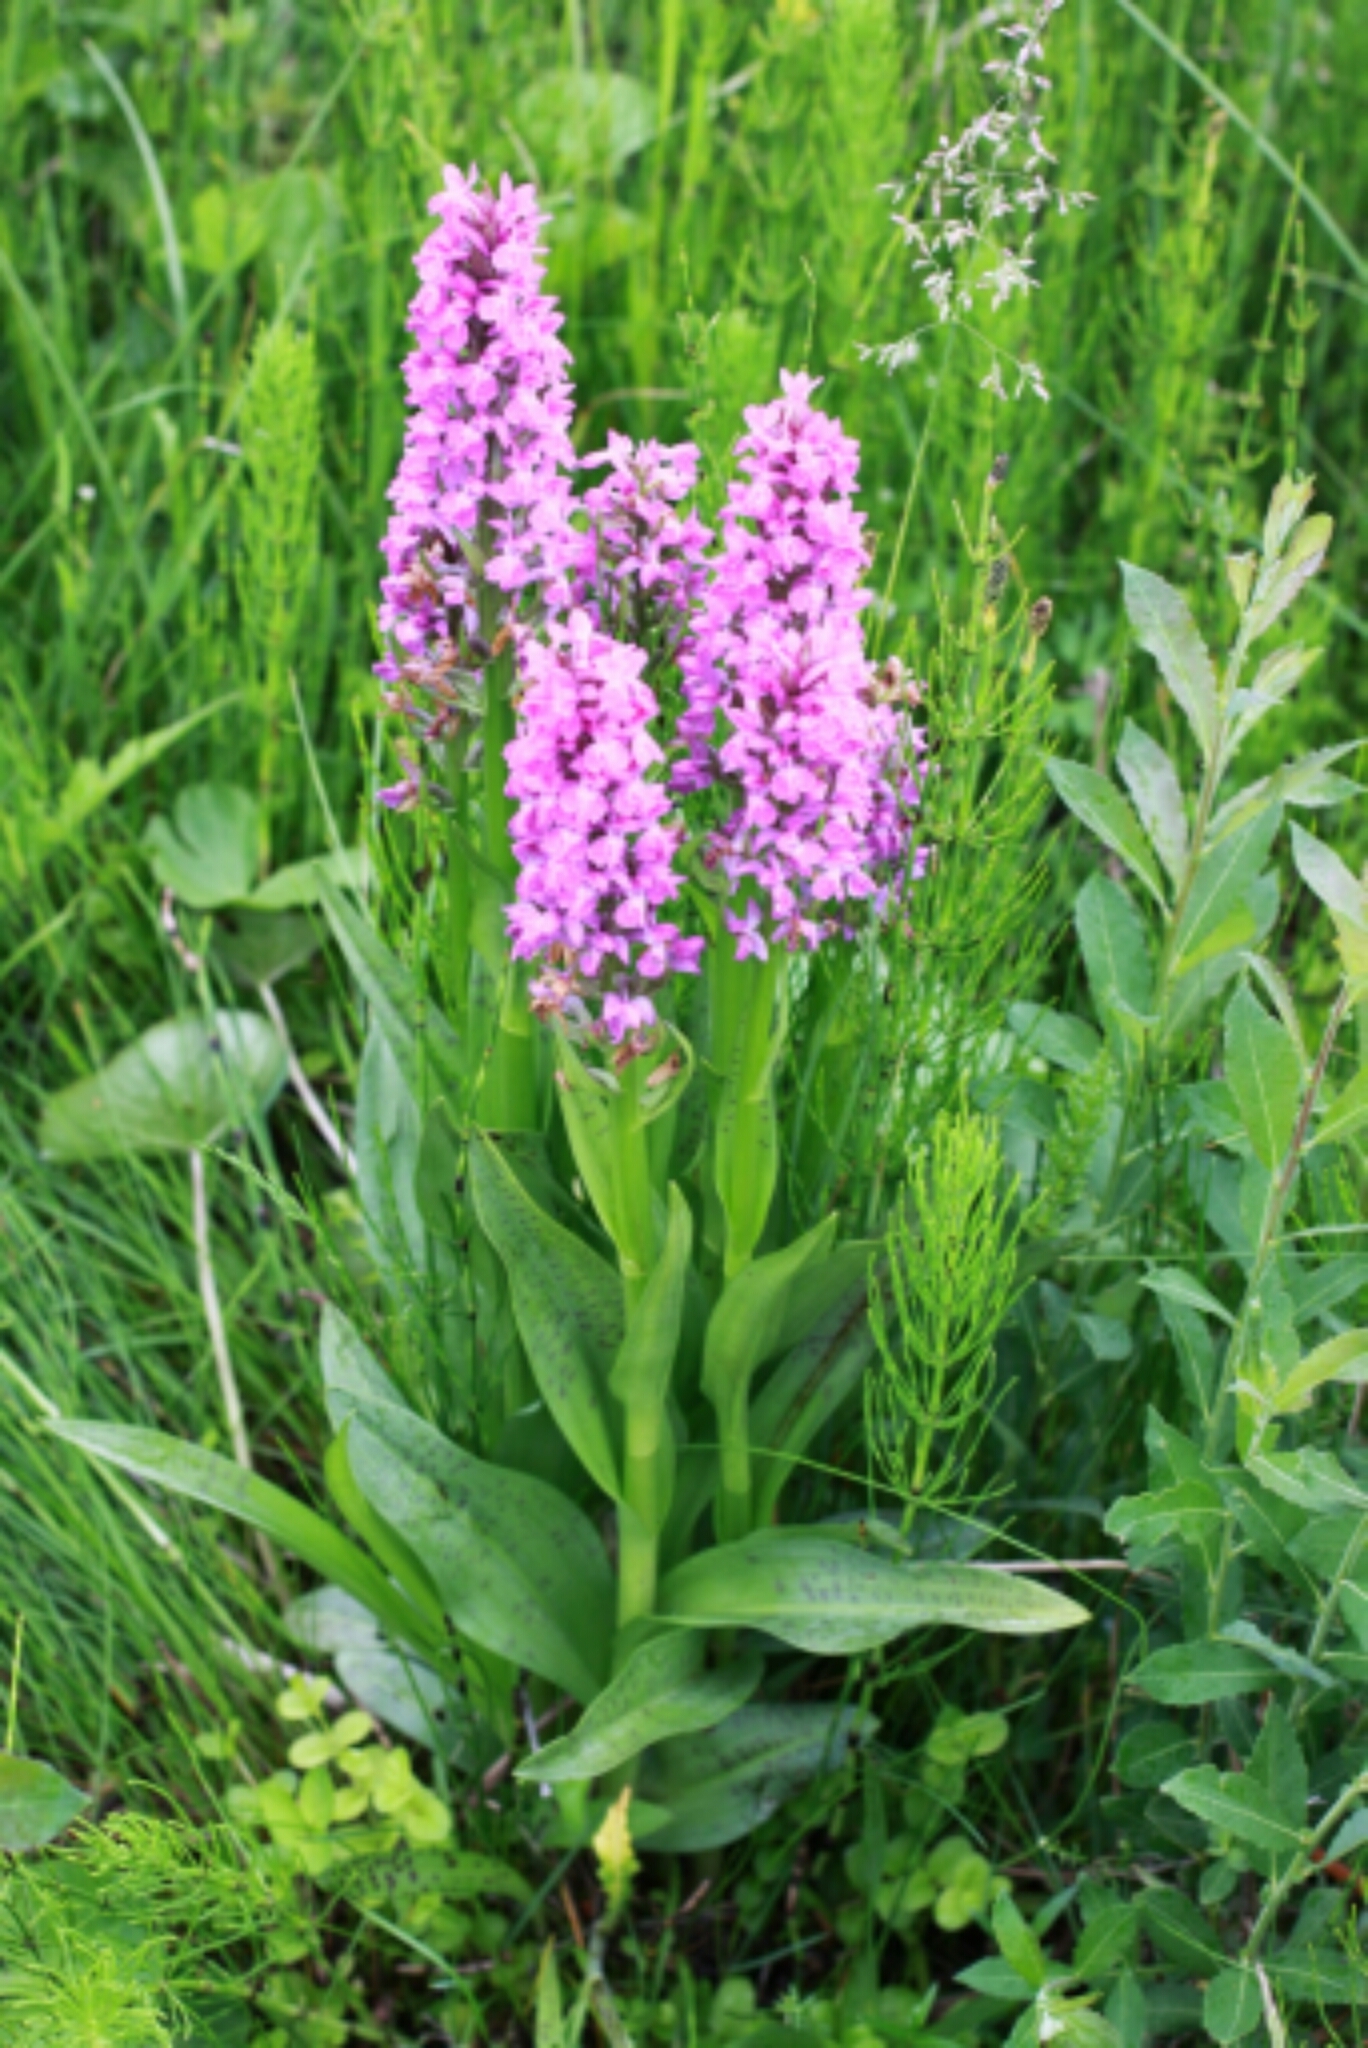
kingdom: Plantae
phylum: Tracheophyta
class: Liliopsida
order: Asparagales
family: Orchidaceae
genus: Dactylorhiza
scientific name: Dactylorhiza majalis
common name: Marsh orchid
